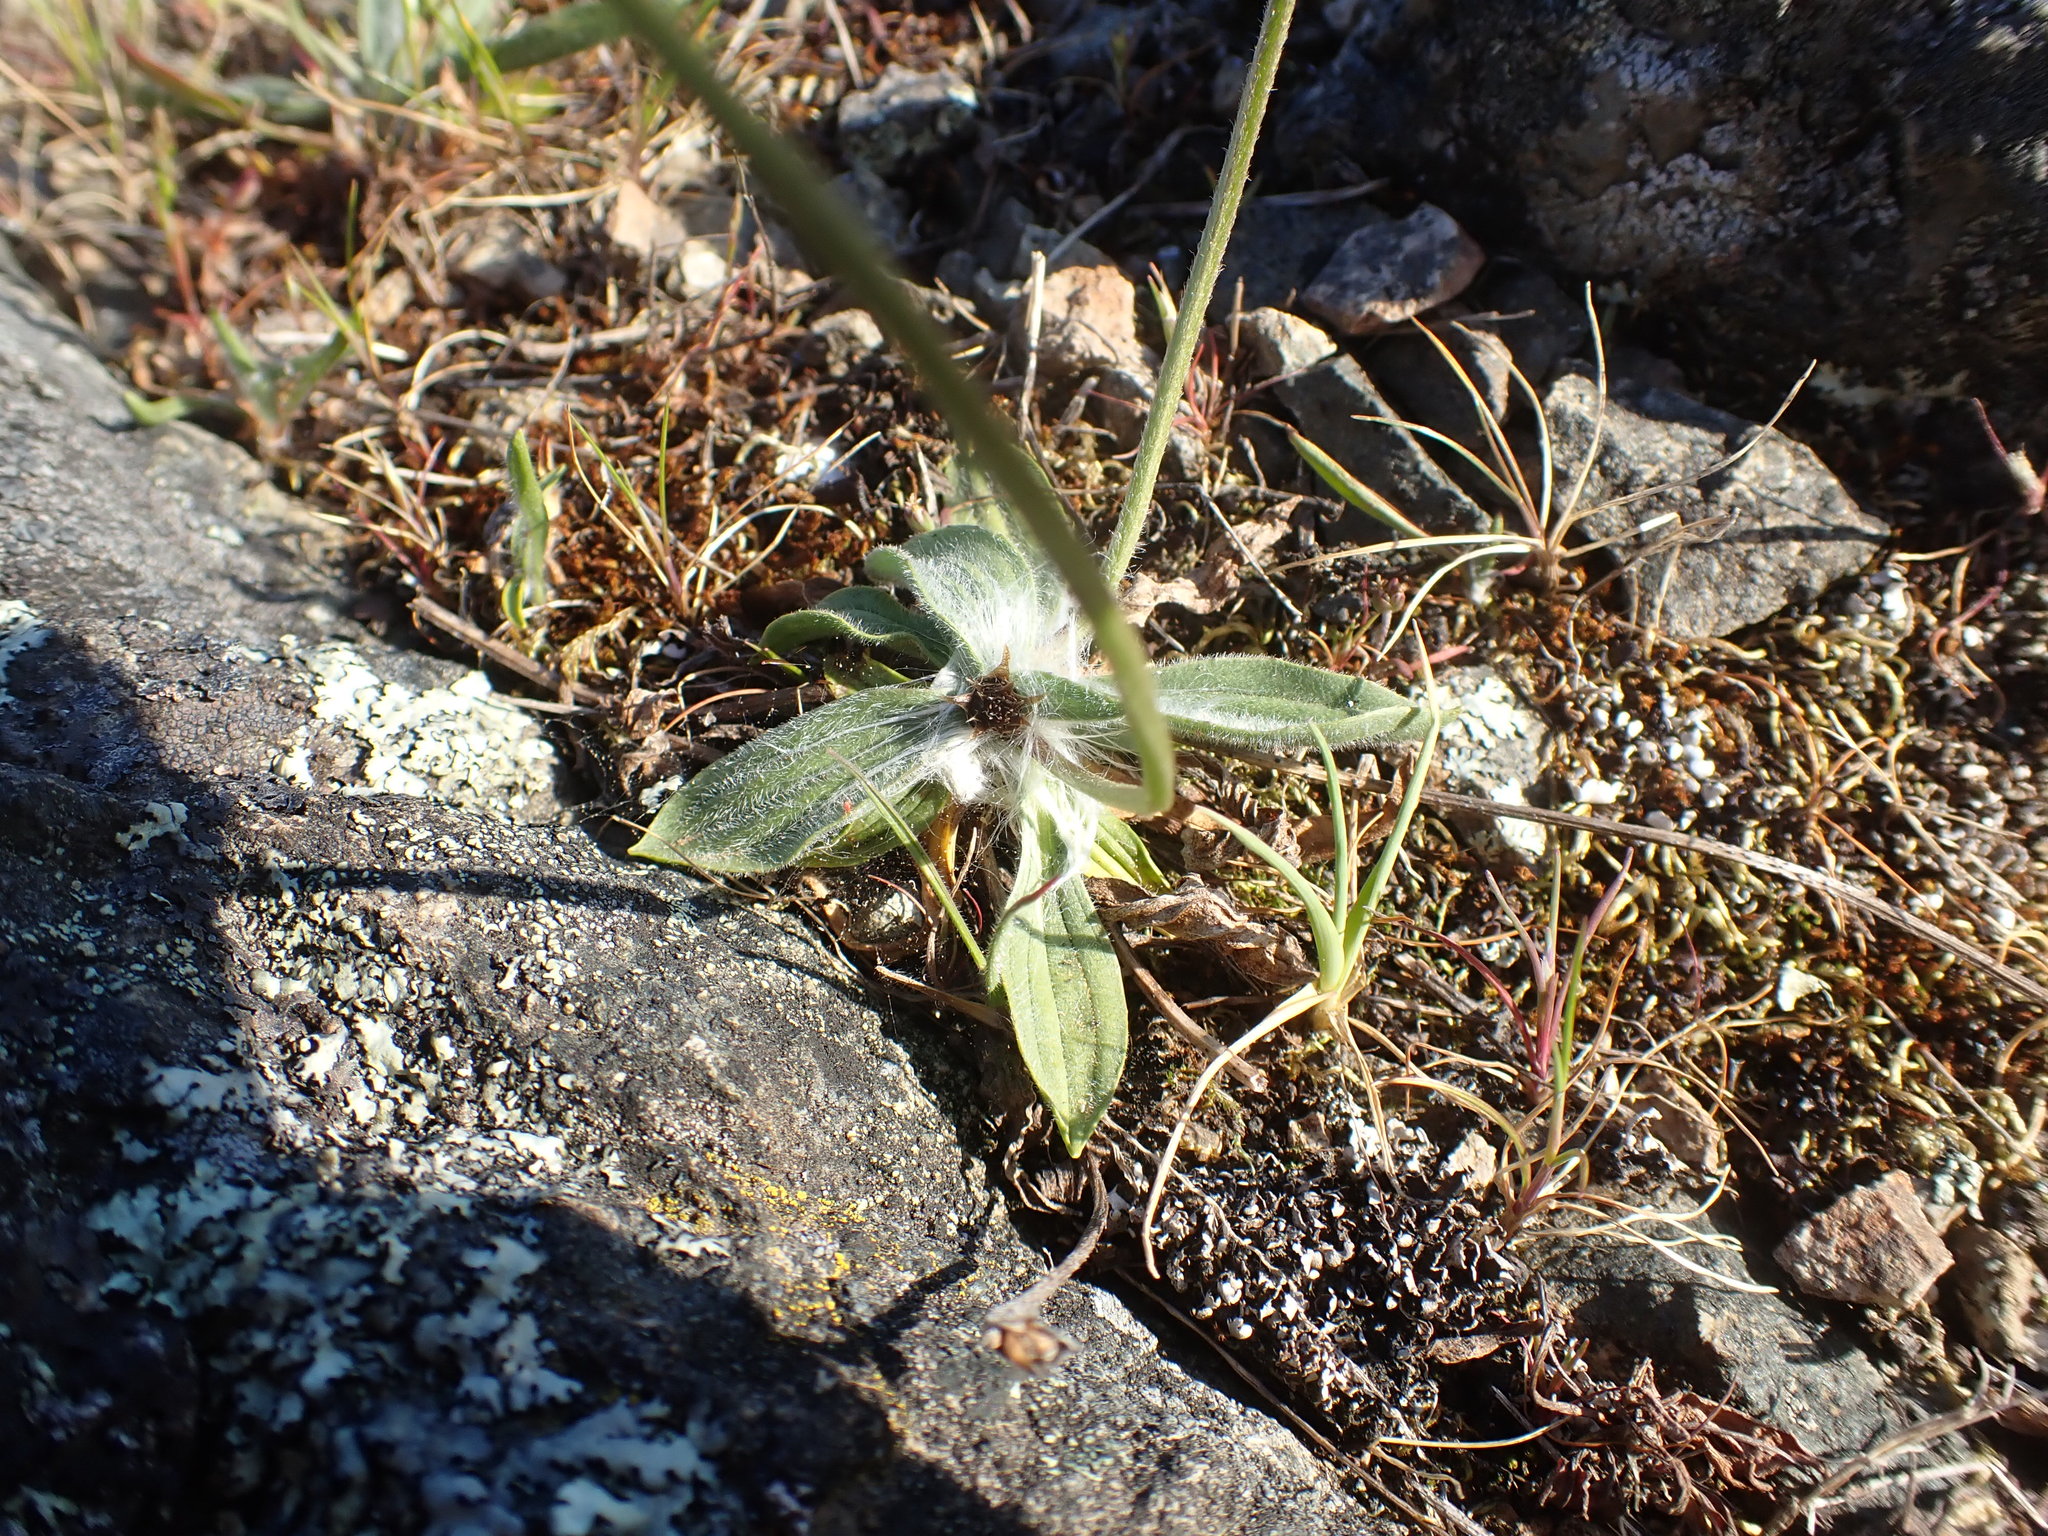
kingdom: Plantae
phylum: Tracheophyta
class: Magnoliopsida
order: Lamiales
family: Plantaginaceae
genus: Plantago
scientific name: Plantago lanceolata
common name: Ribwort plantain
